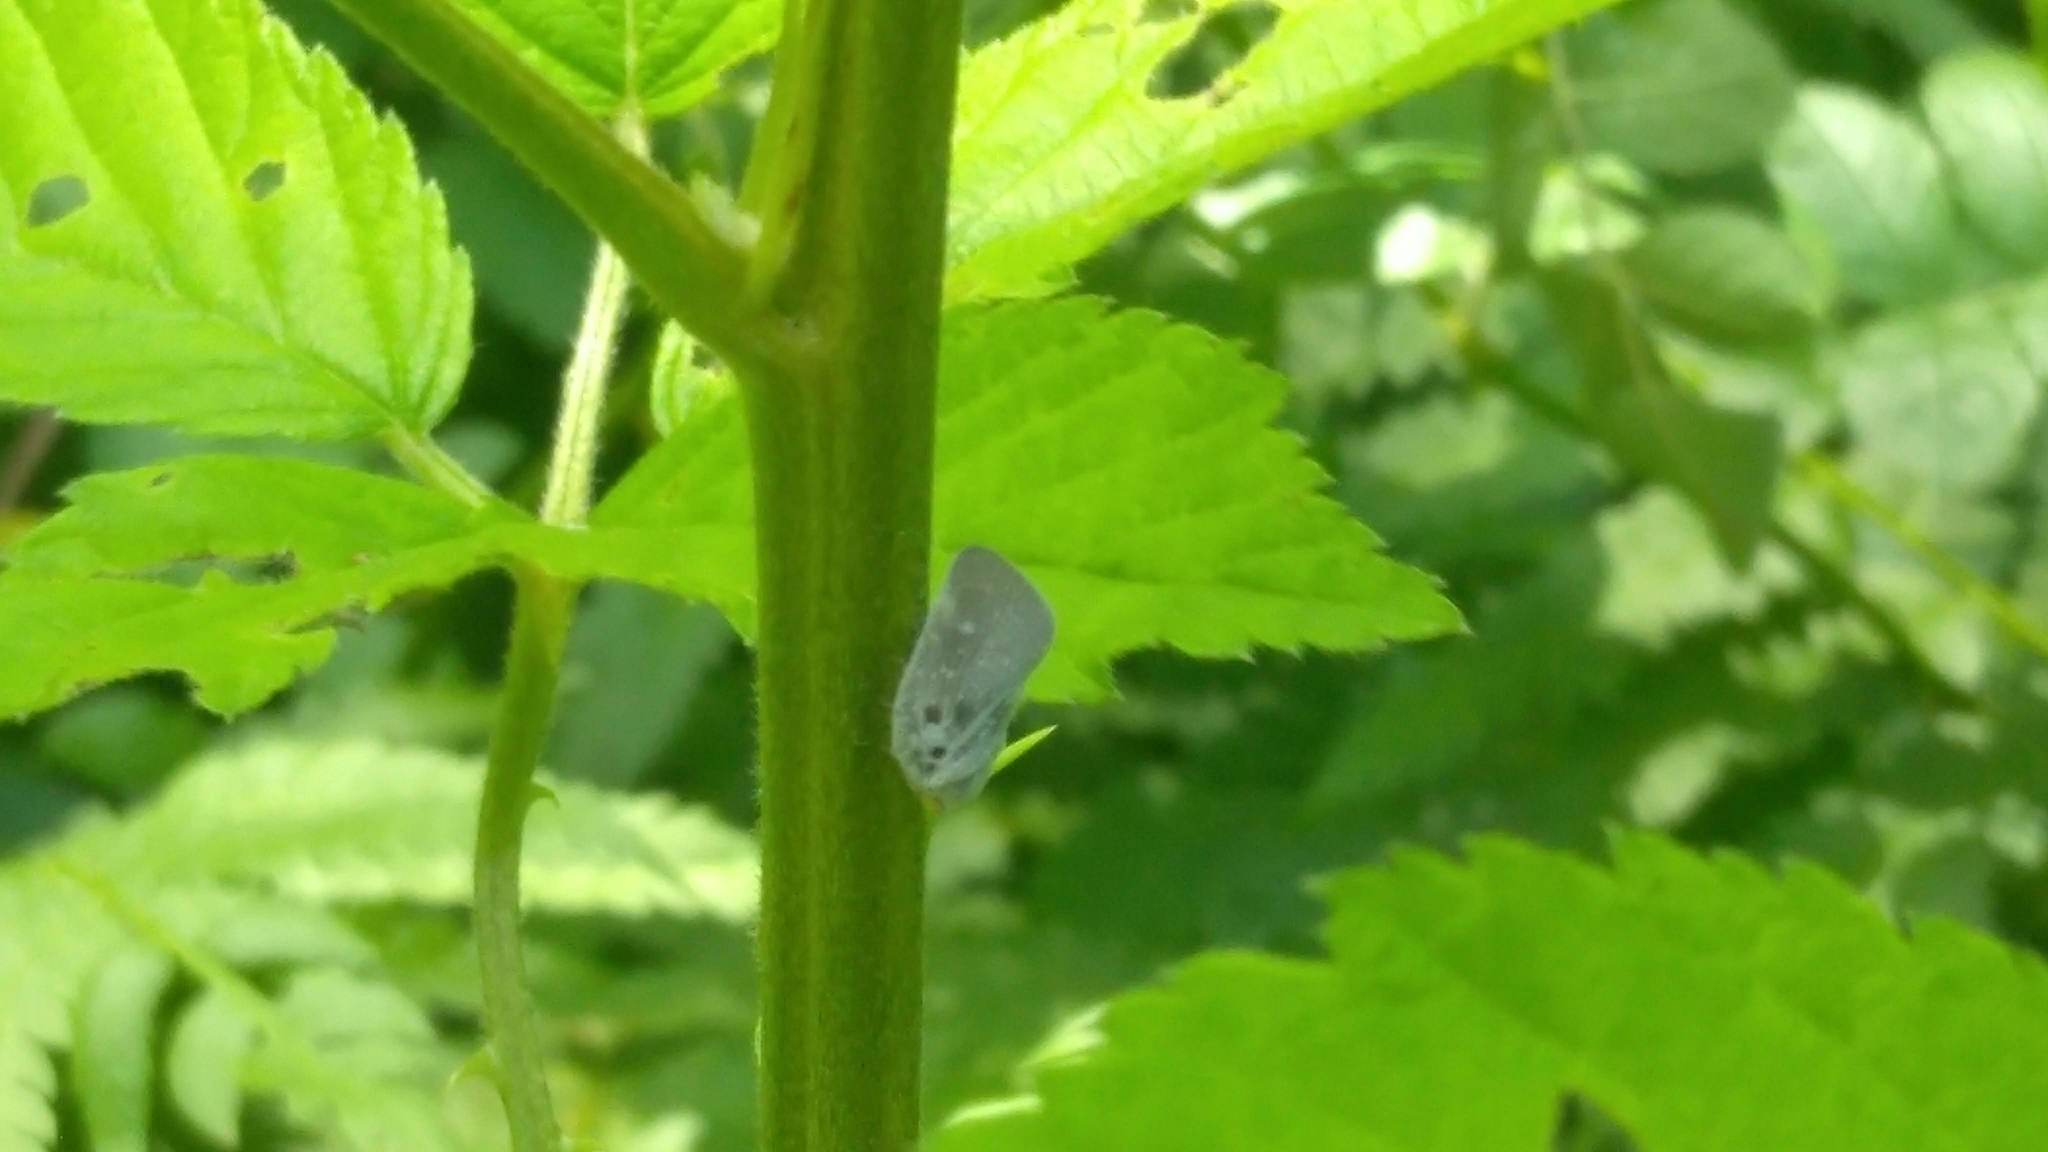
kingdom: Animalia
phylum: Arthropoda
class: Insecta
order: Hemiptera
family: Flatidae
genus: Metcalfa
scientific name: Metcalfa pruinosa
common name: Citrus flatid planthopper
